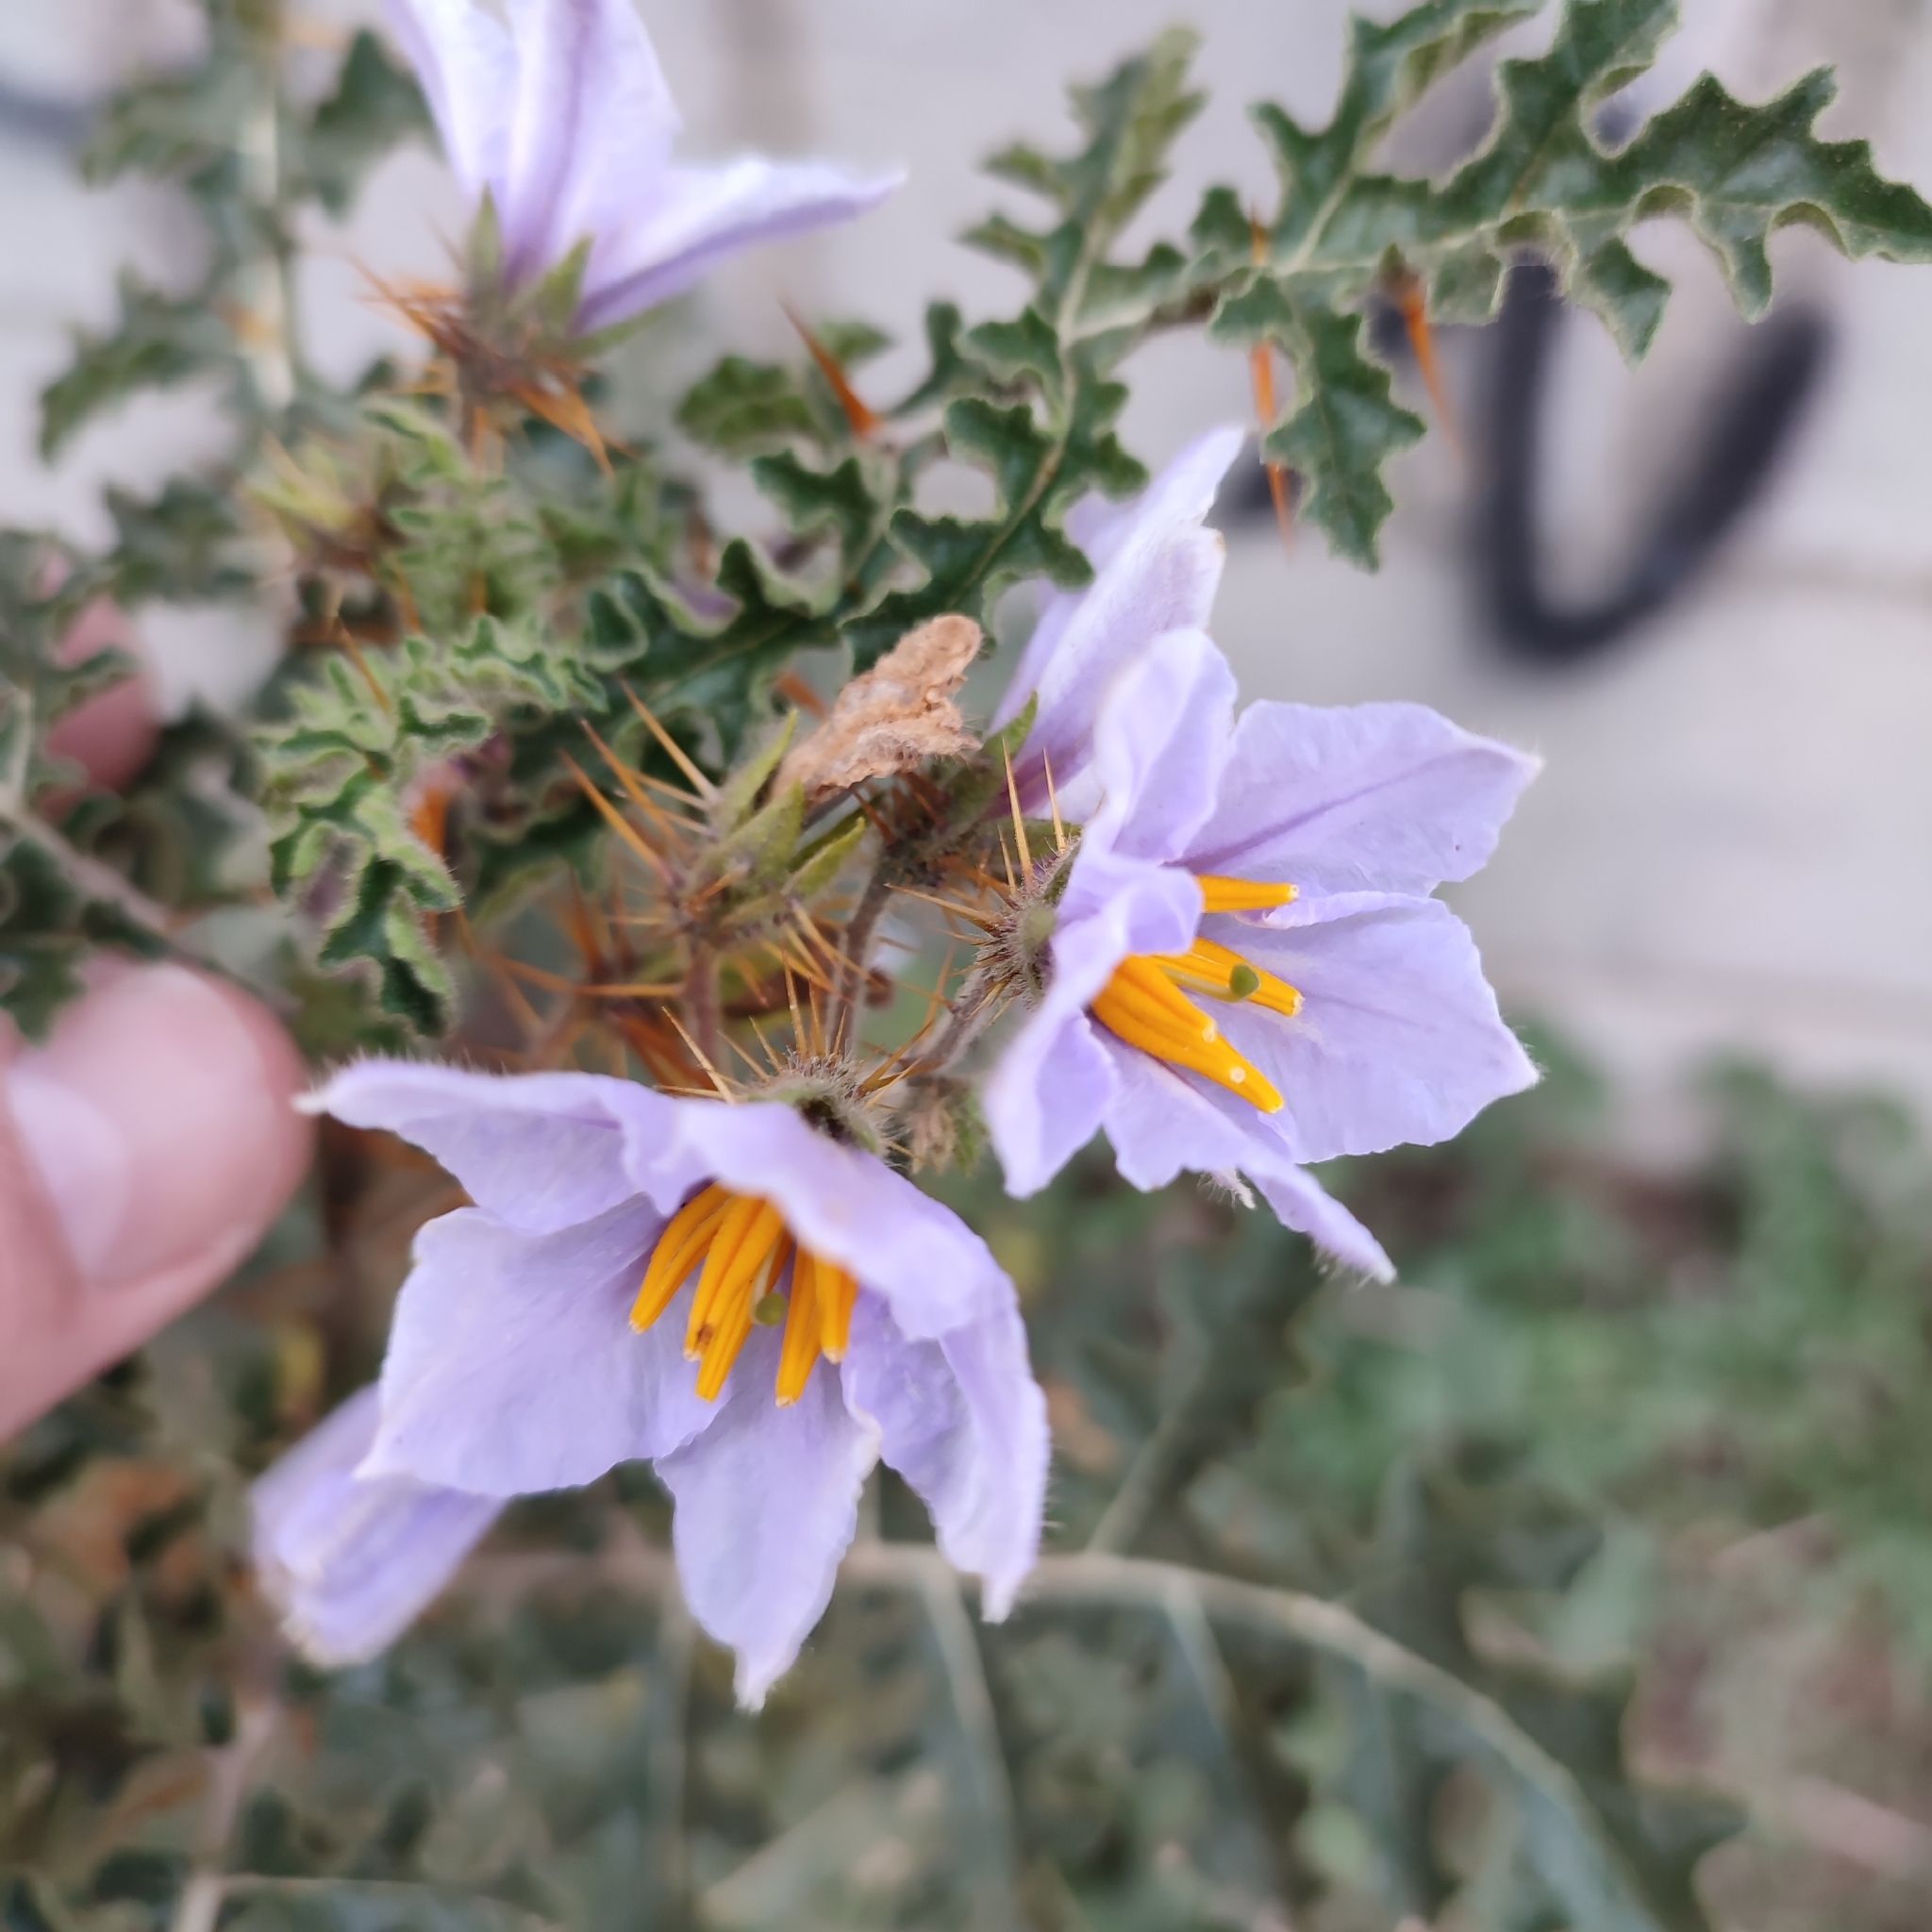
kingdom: Plantae
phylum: Tracheophyta
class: Magnoliopsida
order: Solanales
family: Solanaceae
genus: Solanum
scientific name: Solanum sisymbriifolium
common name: Red buffalo-bur
